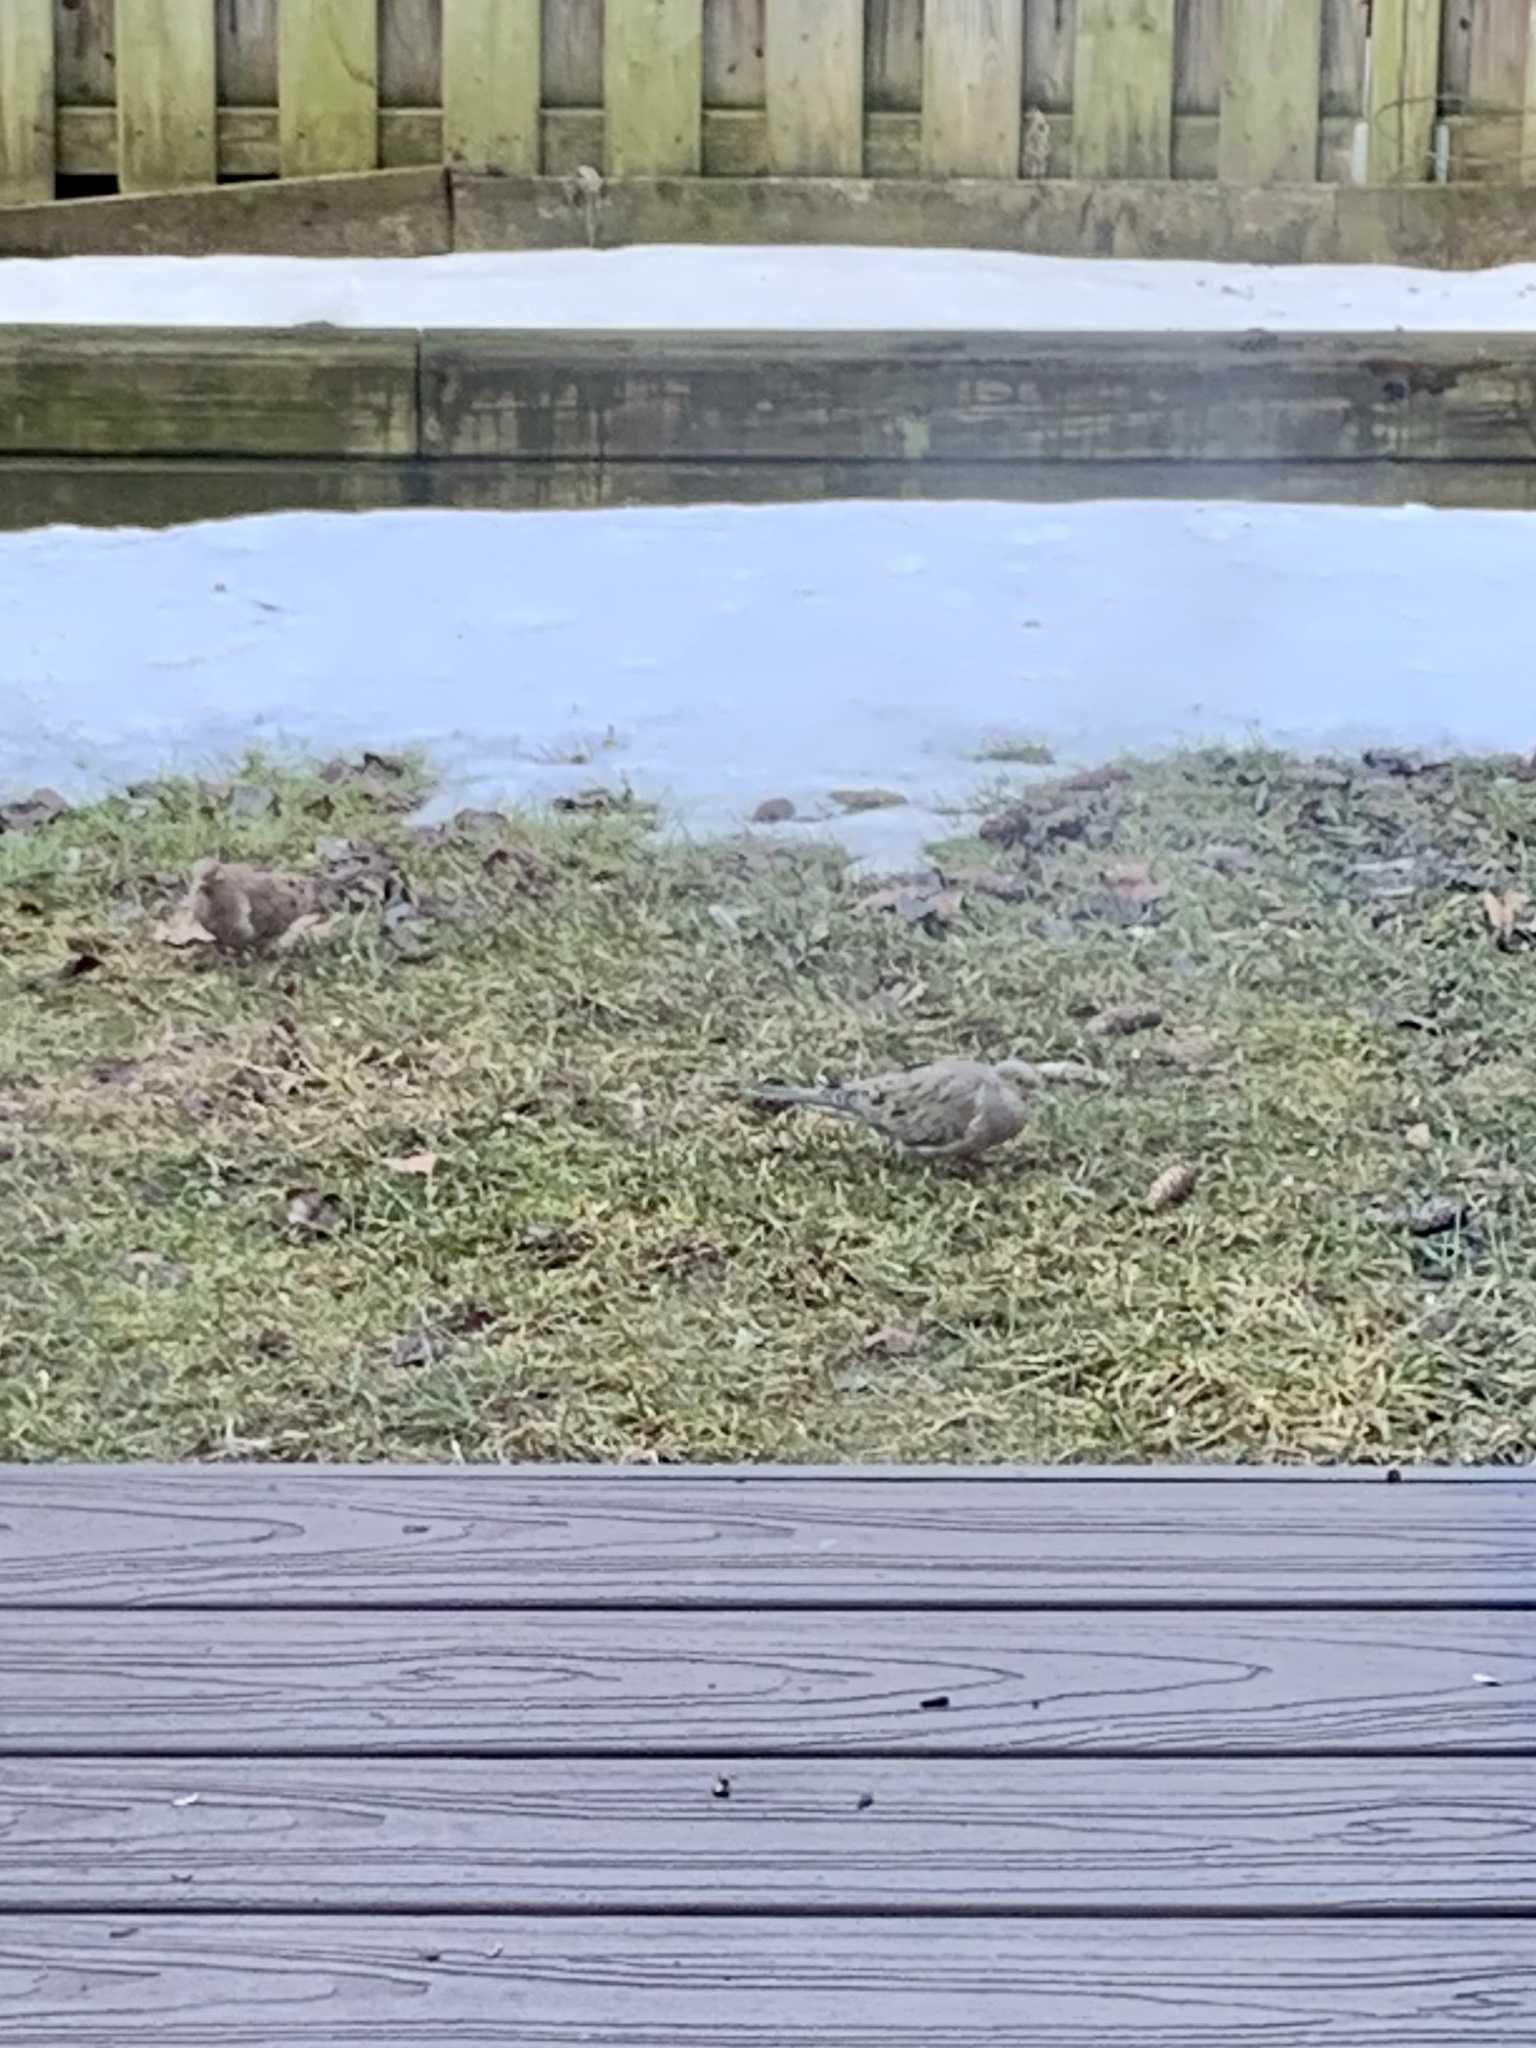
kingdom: Animalia
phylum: Chordata
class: Aves
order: Columbiformes
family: Columbidae
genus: Zenaida
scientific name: Zenaida macroura
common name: Mourning dove
